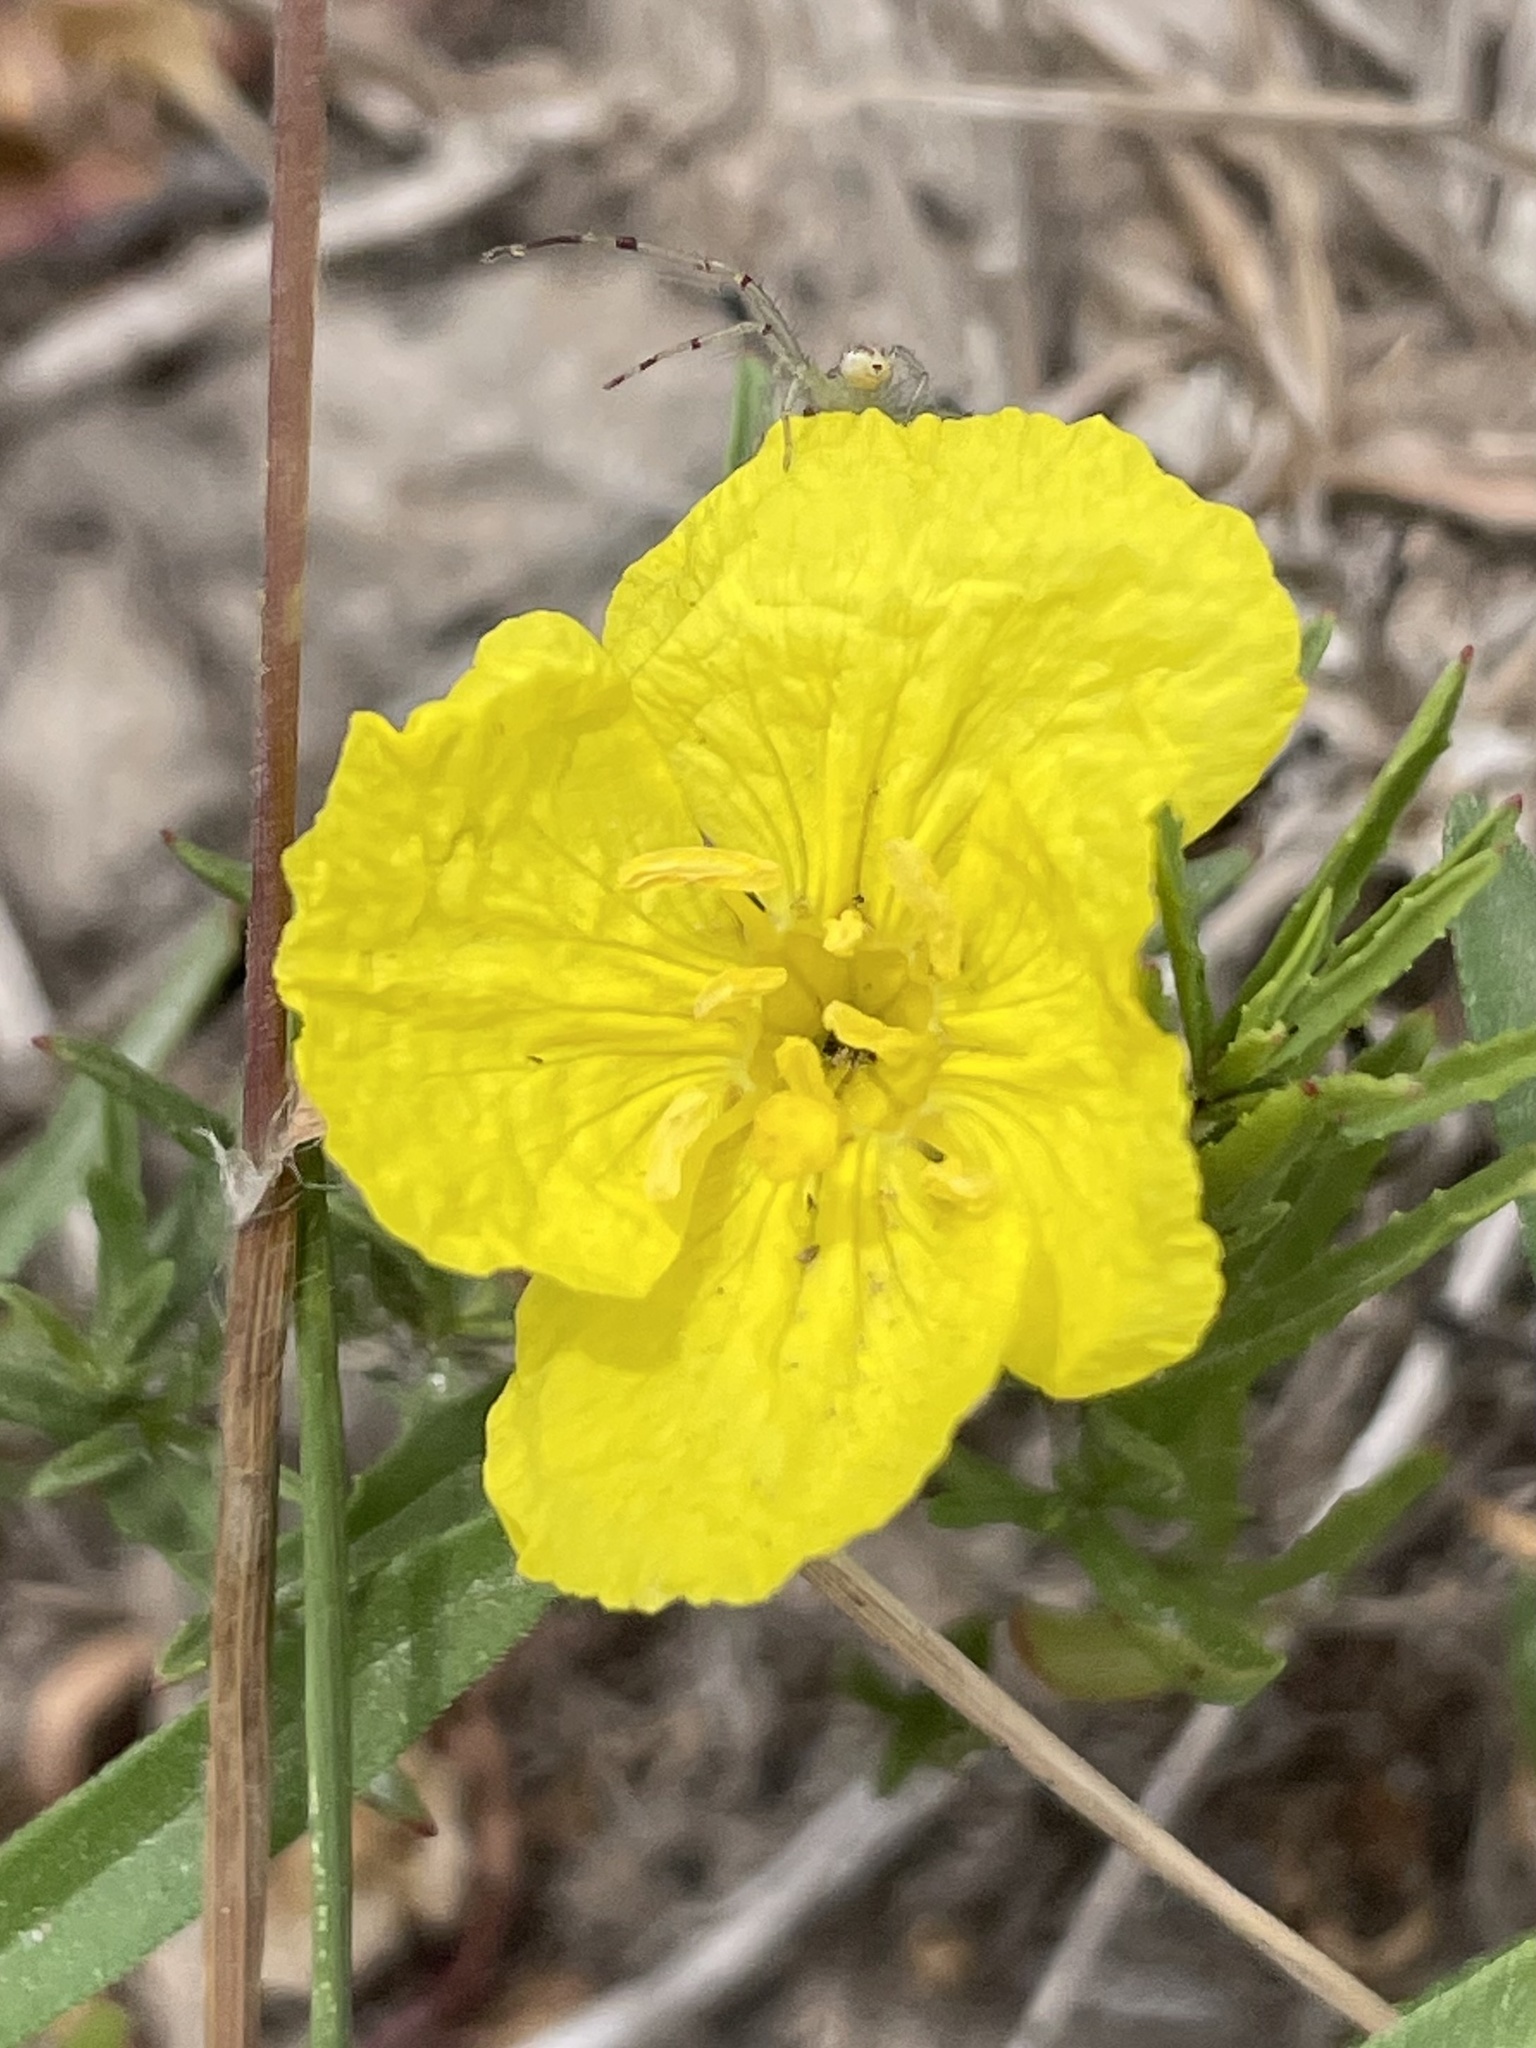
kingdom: Plantae
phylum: Tracheophyta
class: Magnoliopsida
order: Myrtales
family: Onagraceae
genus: Oenothera
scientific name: Oenothera
